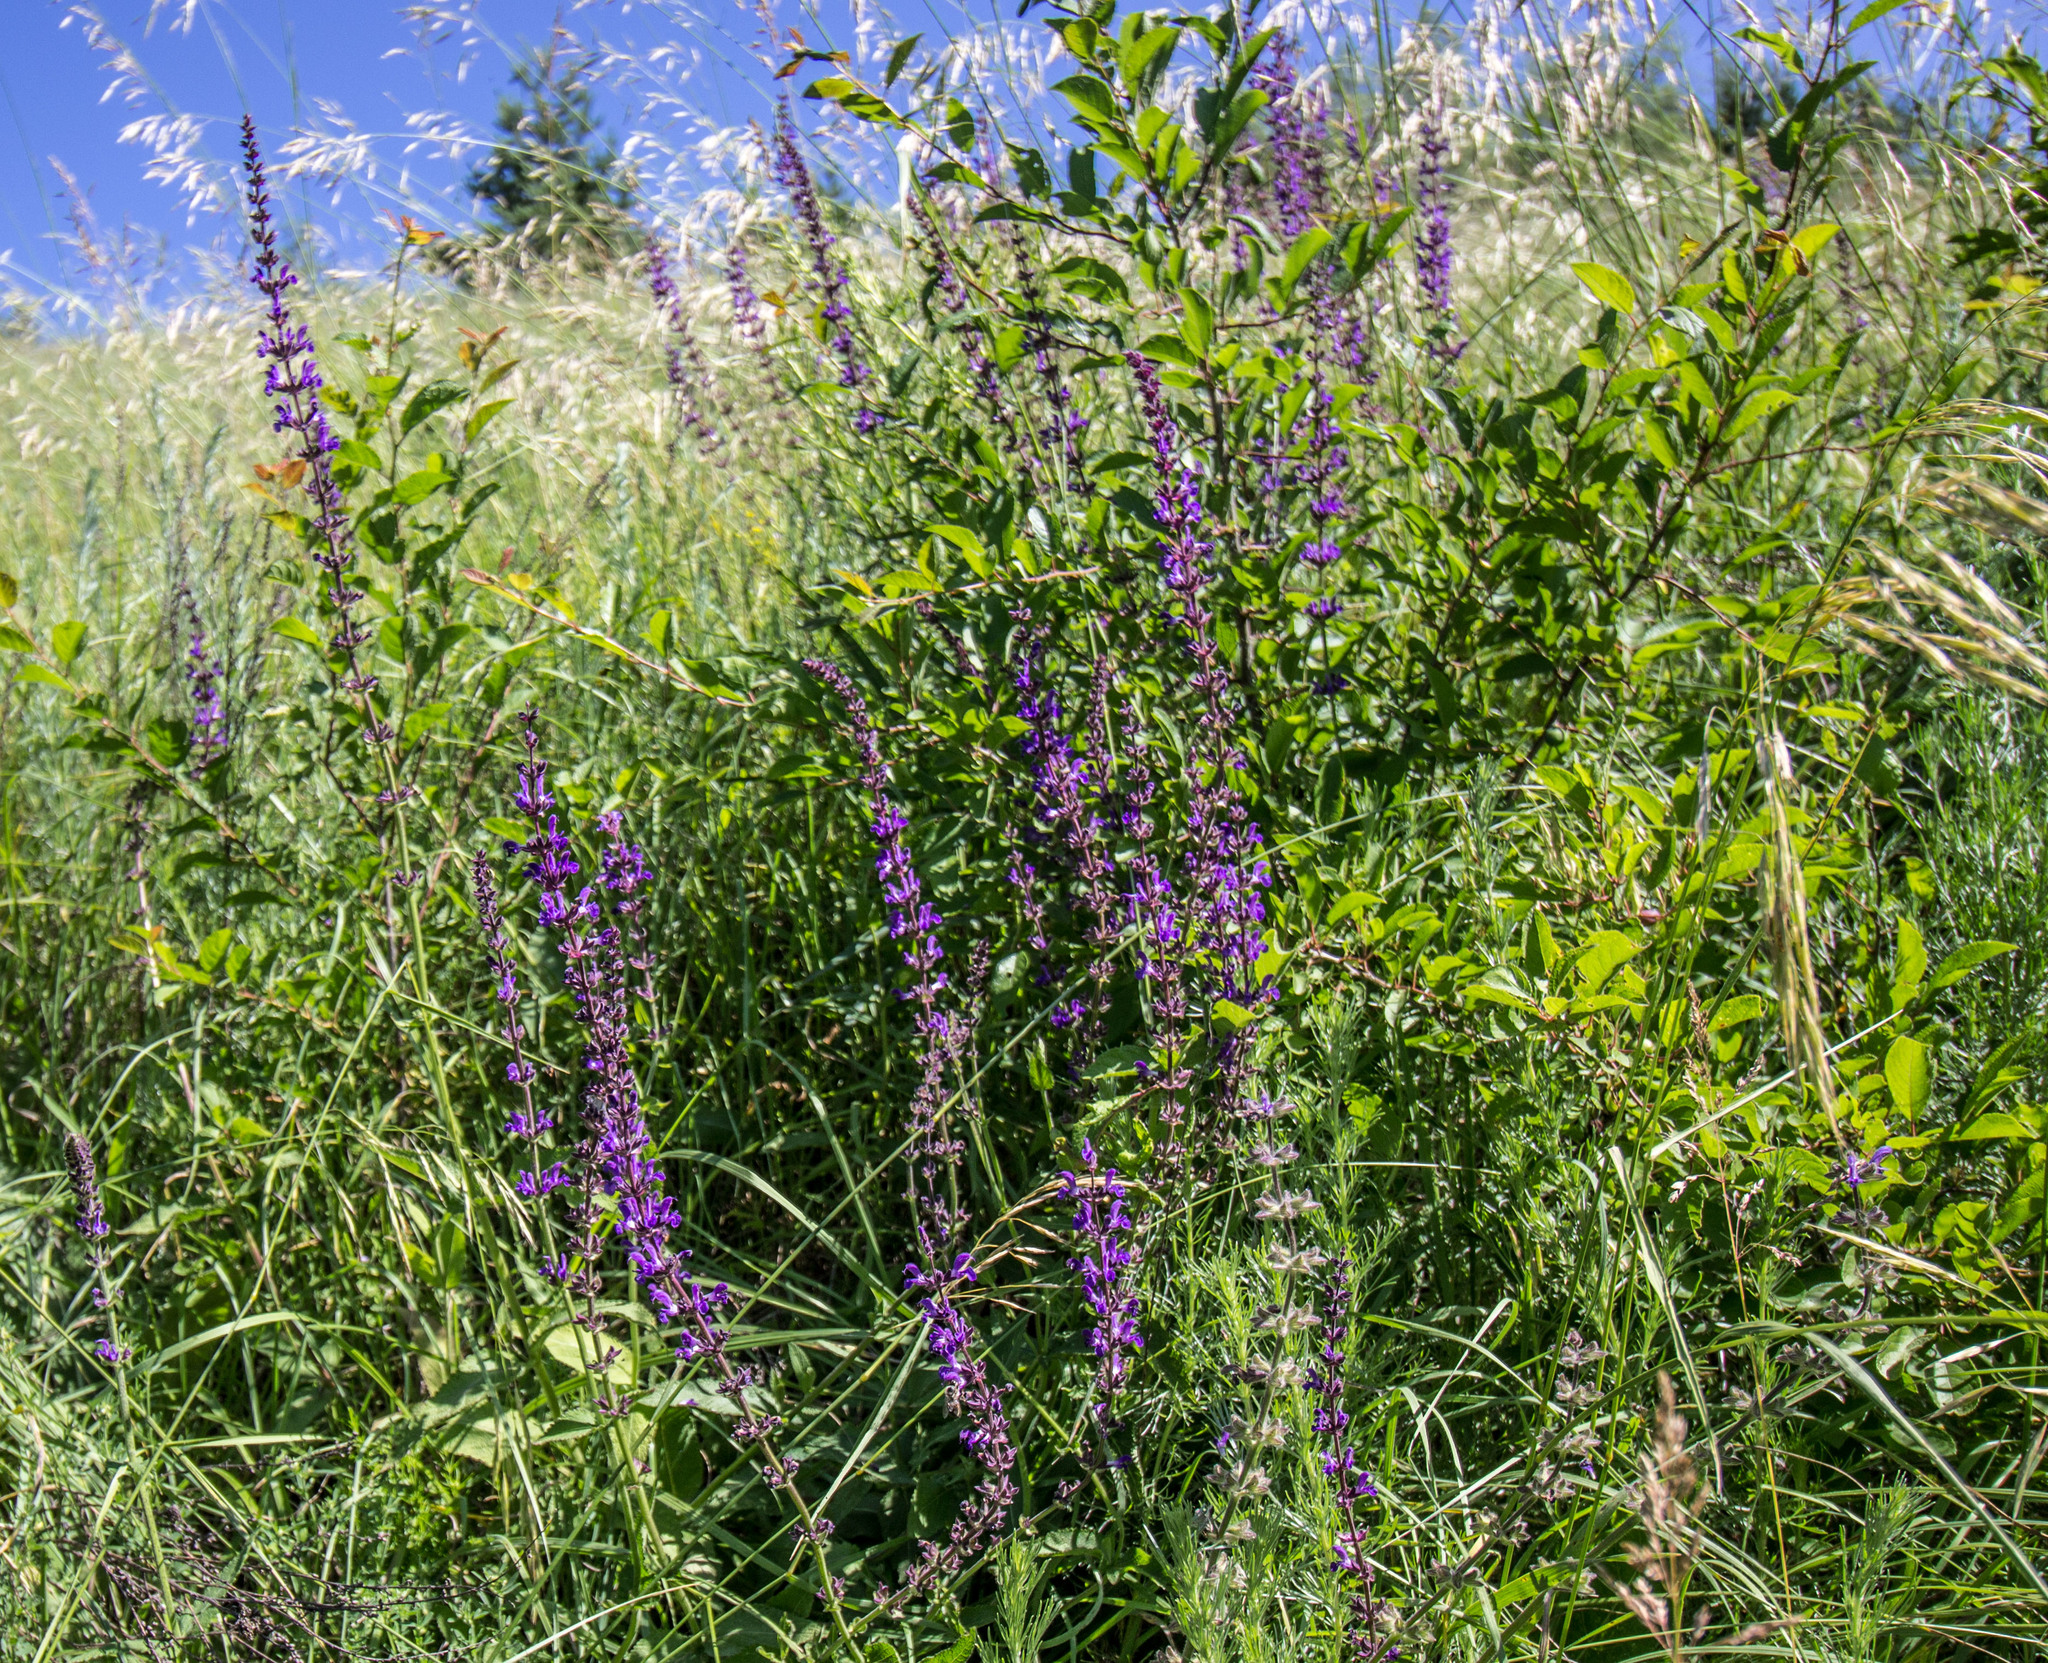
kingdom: Plantae
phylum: Tracheophyta
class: Magnoliopsida
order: Lamiales
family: Lamiaceae
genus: Salvia
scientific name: Salvia dumetorum
